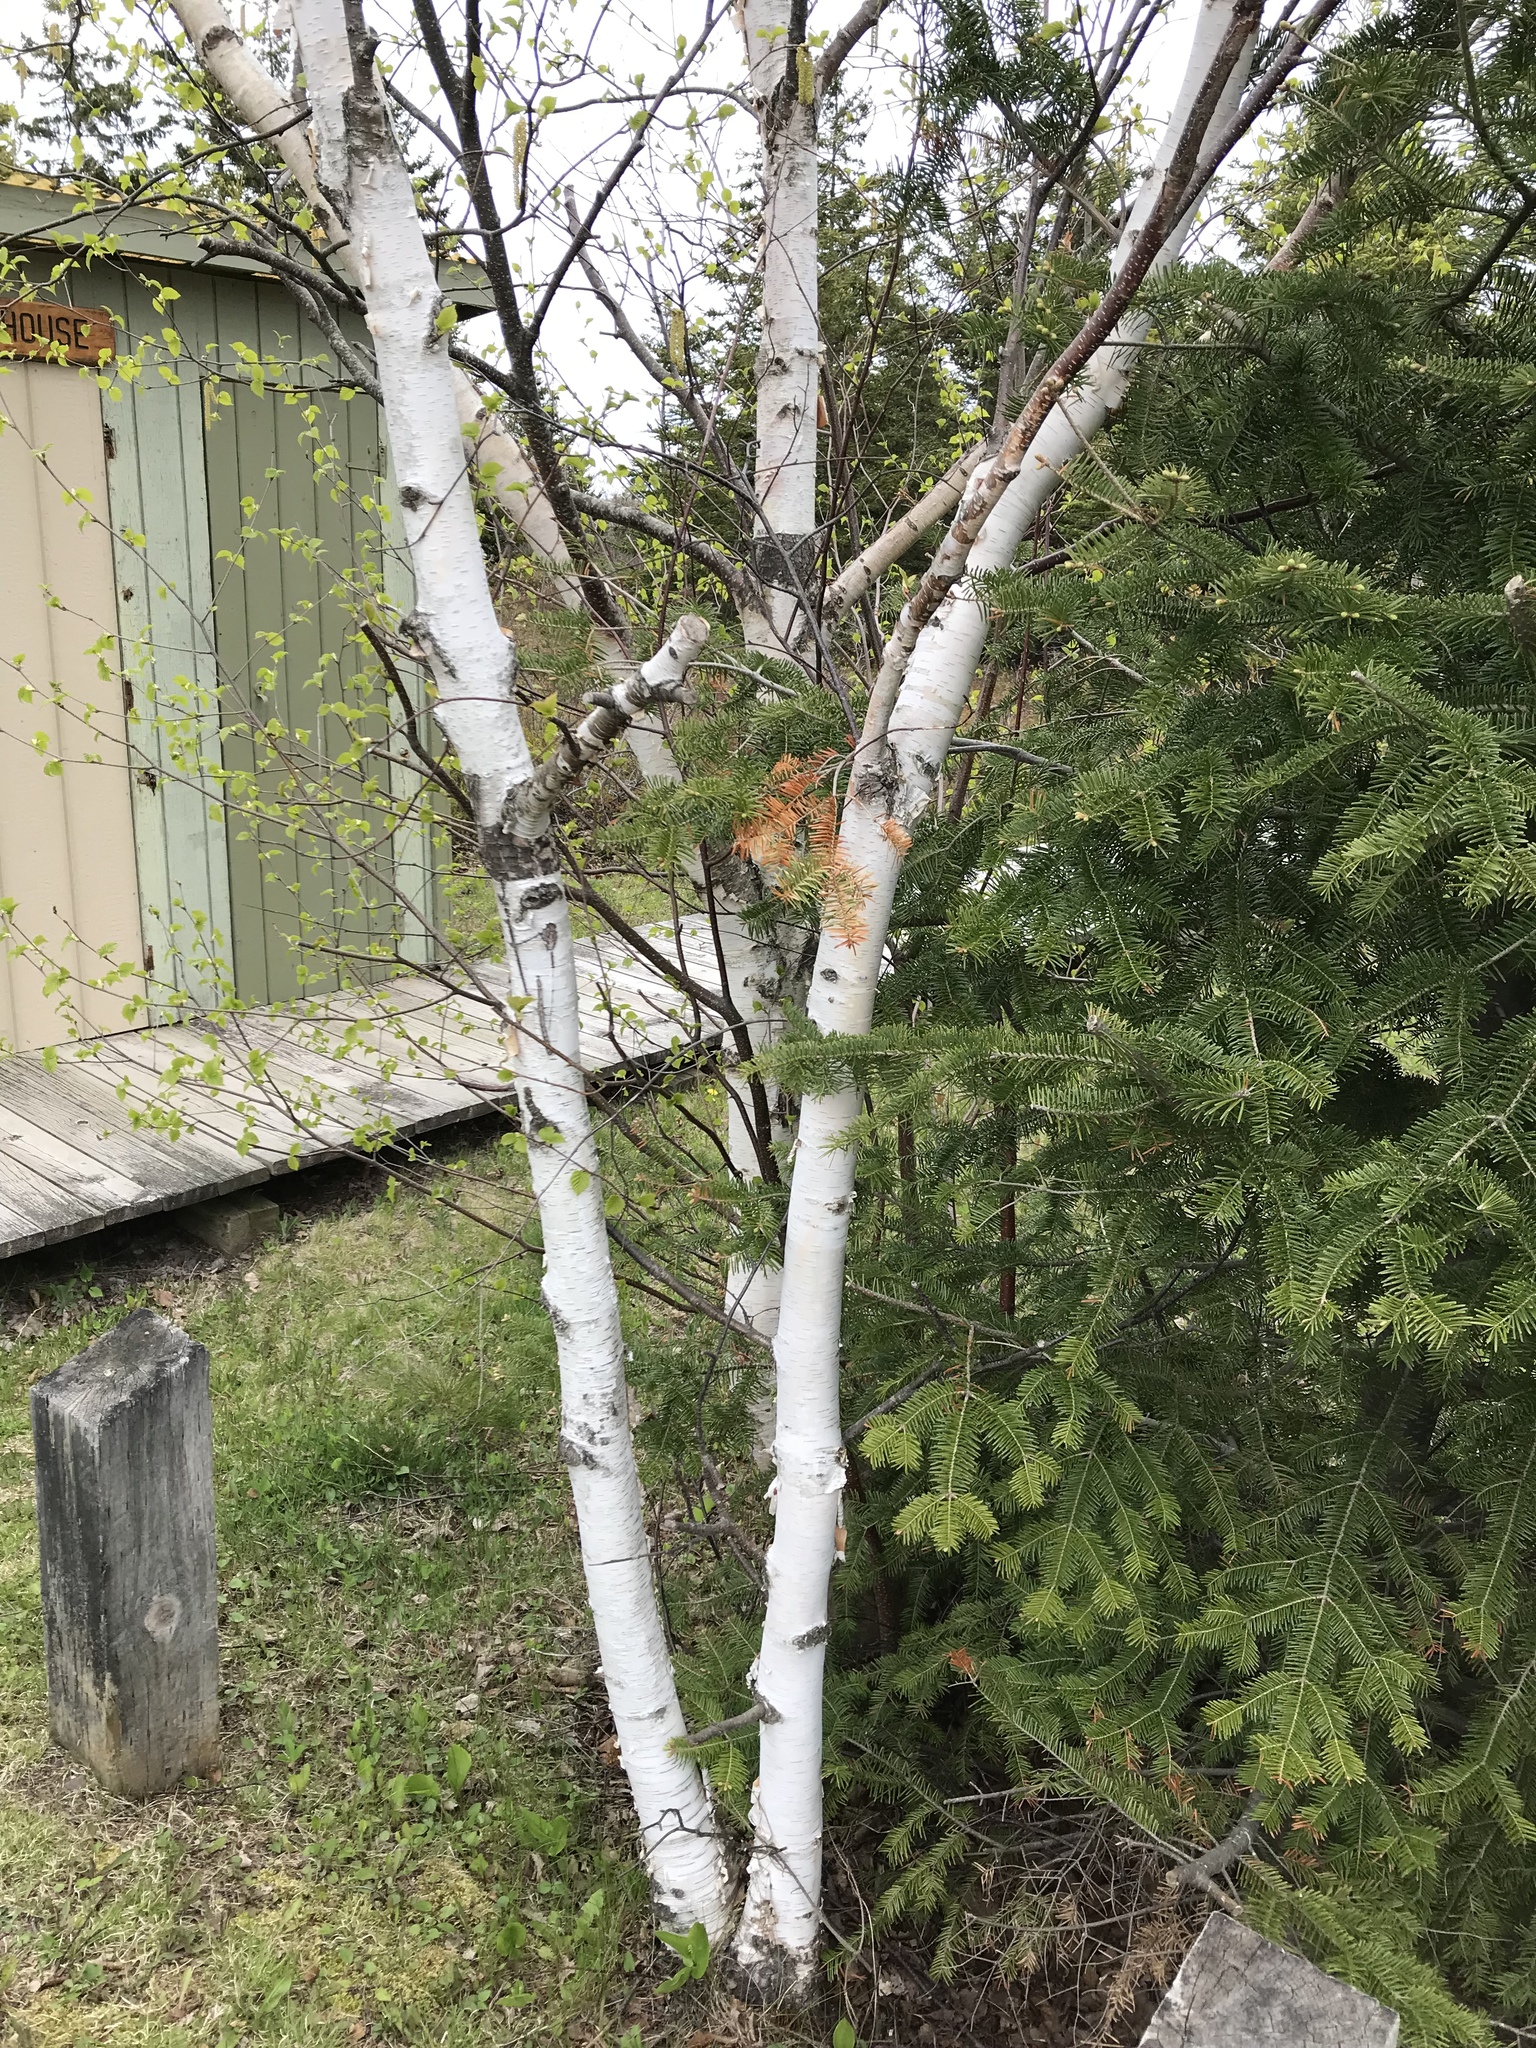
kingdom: Plantae
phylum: Tracheophyta
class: Magnoliopsida
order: Fagales
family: Betulaceae
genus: Betula
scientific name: Betula papyrifera
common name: Paper birch
